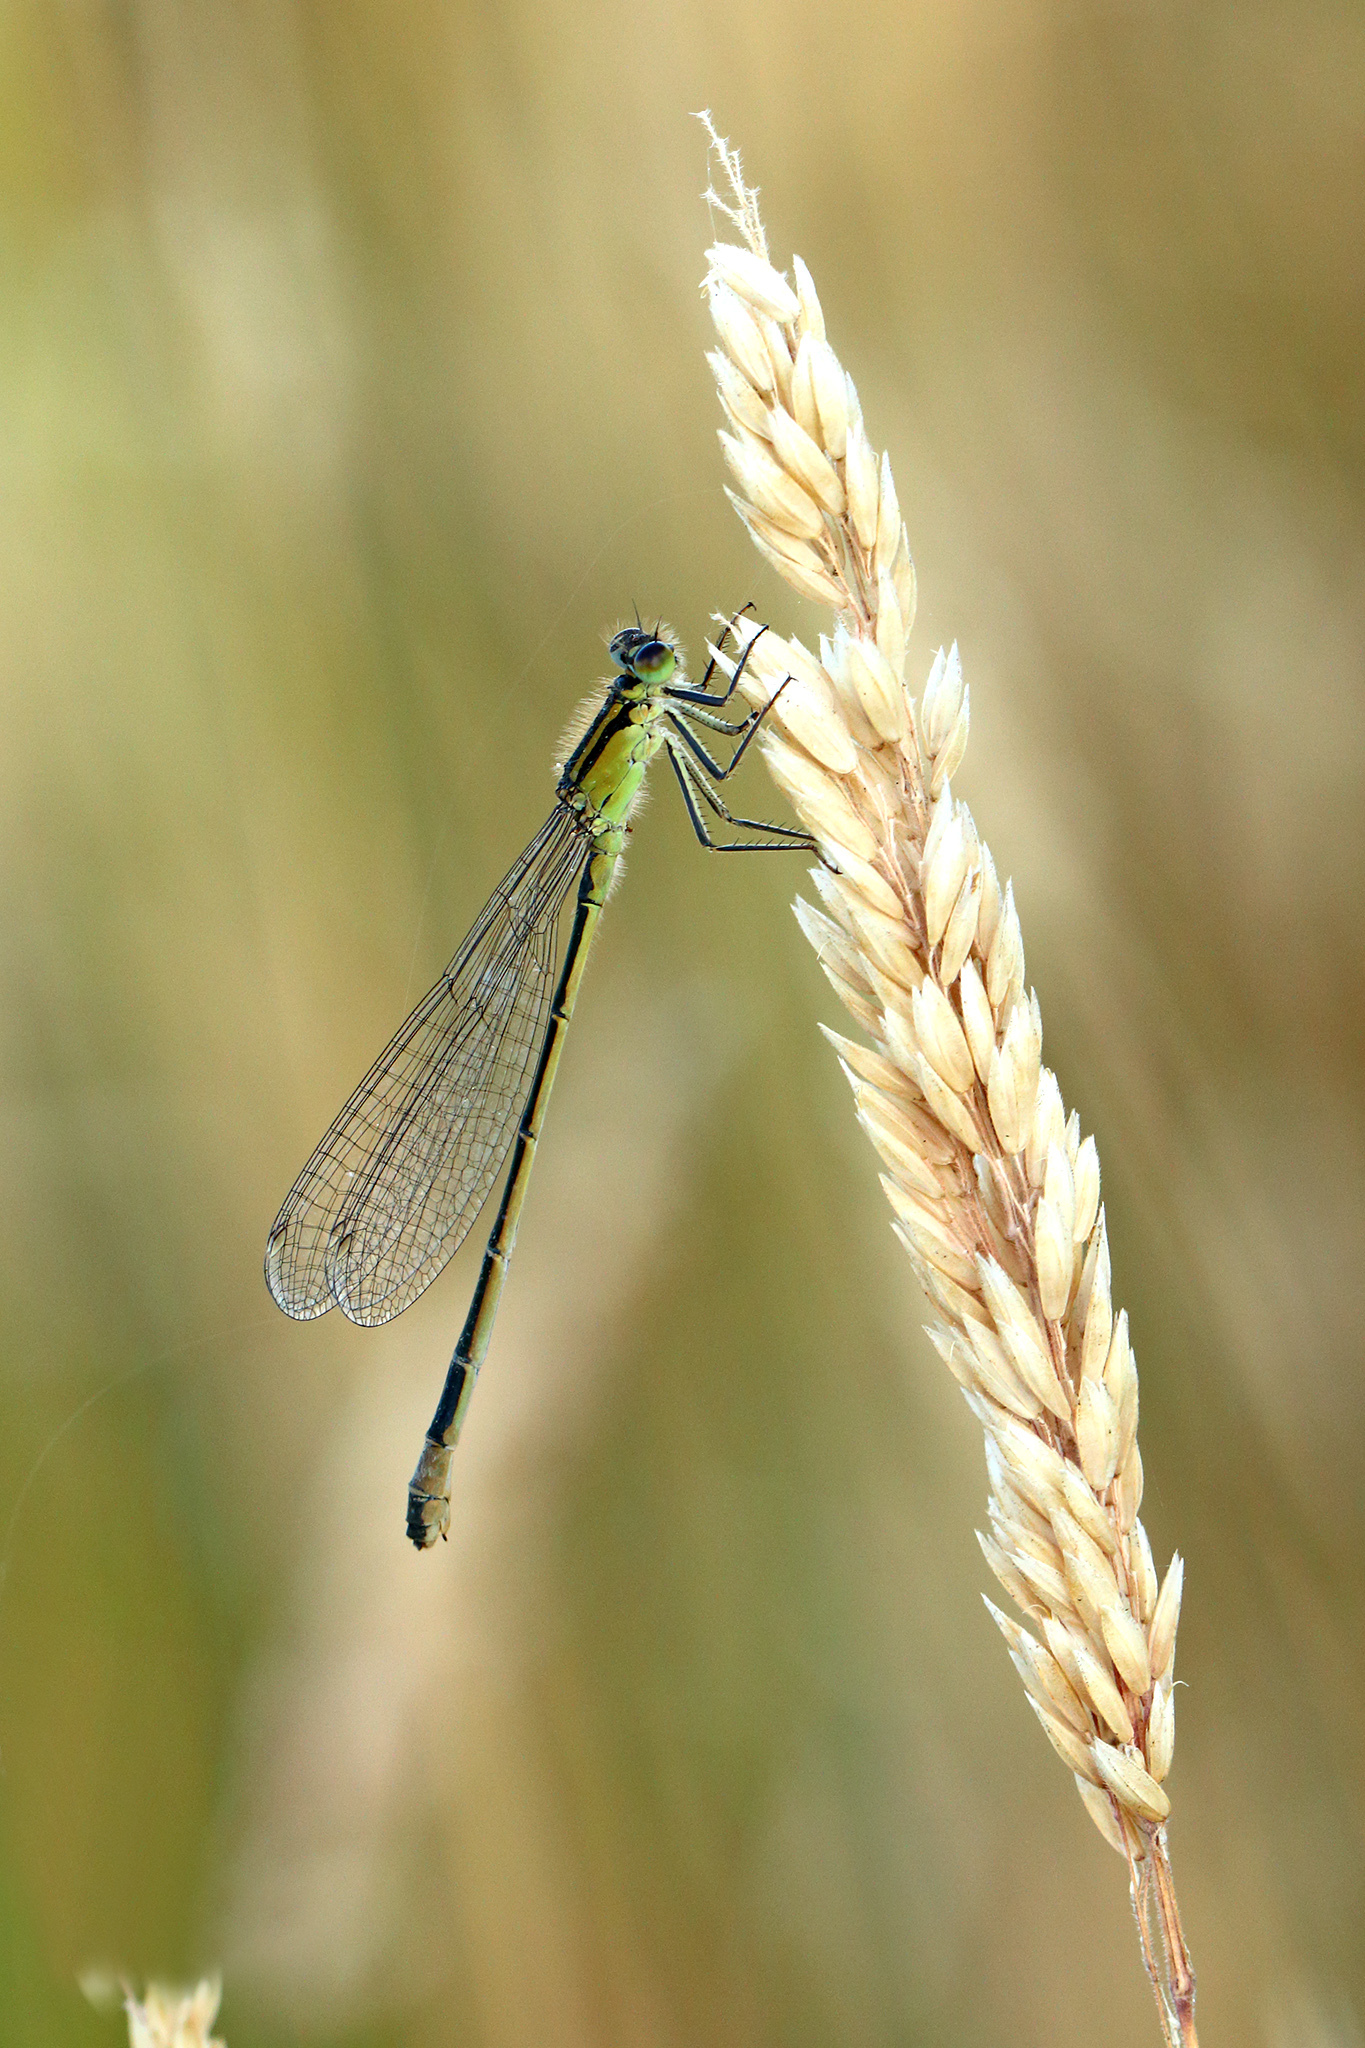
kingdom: Animalia
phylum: Arthropoda
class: Insecta
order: Odonata
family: Coenagrionidae
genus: Ischnura
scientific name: Ischnura elegans
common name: Blue-tailed damselfly
